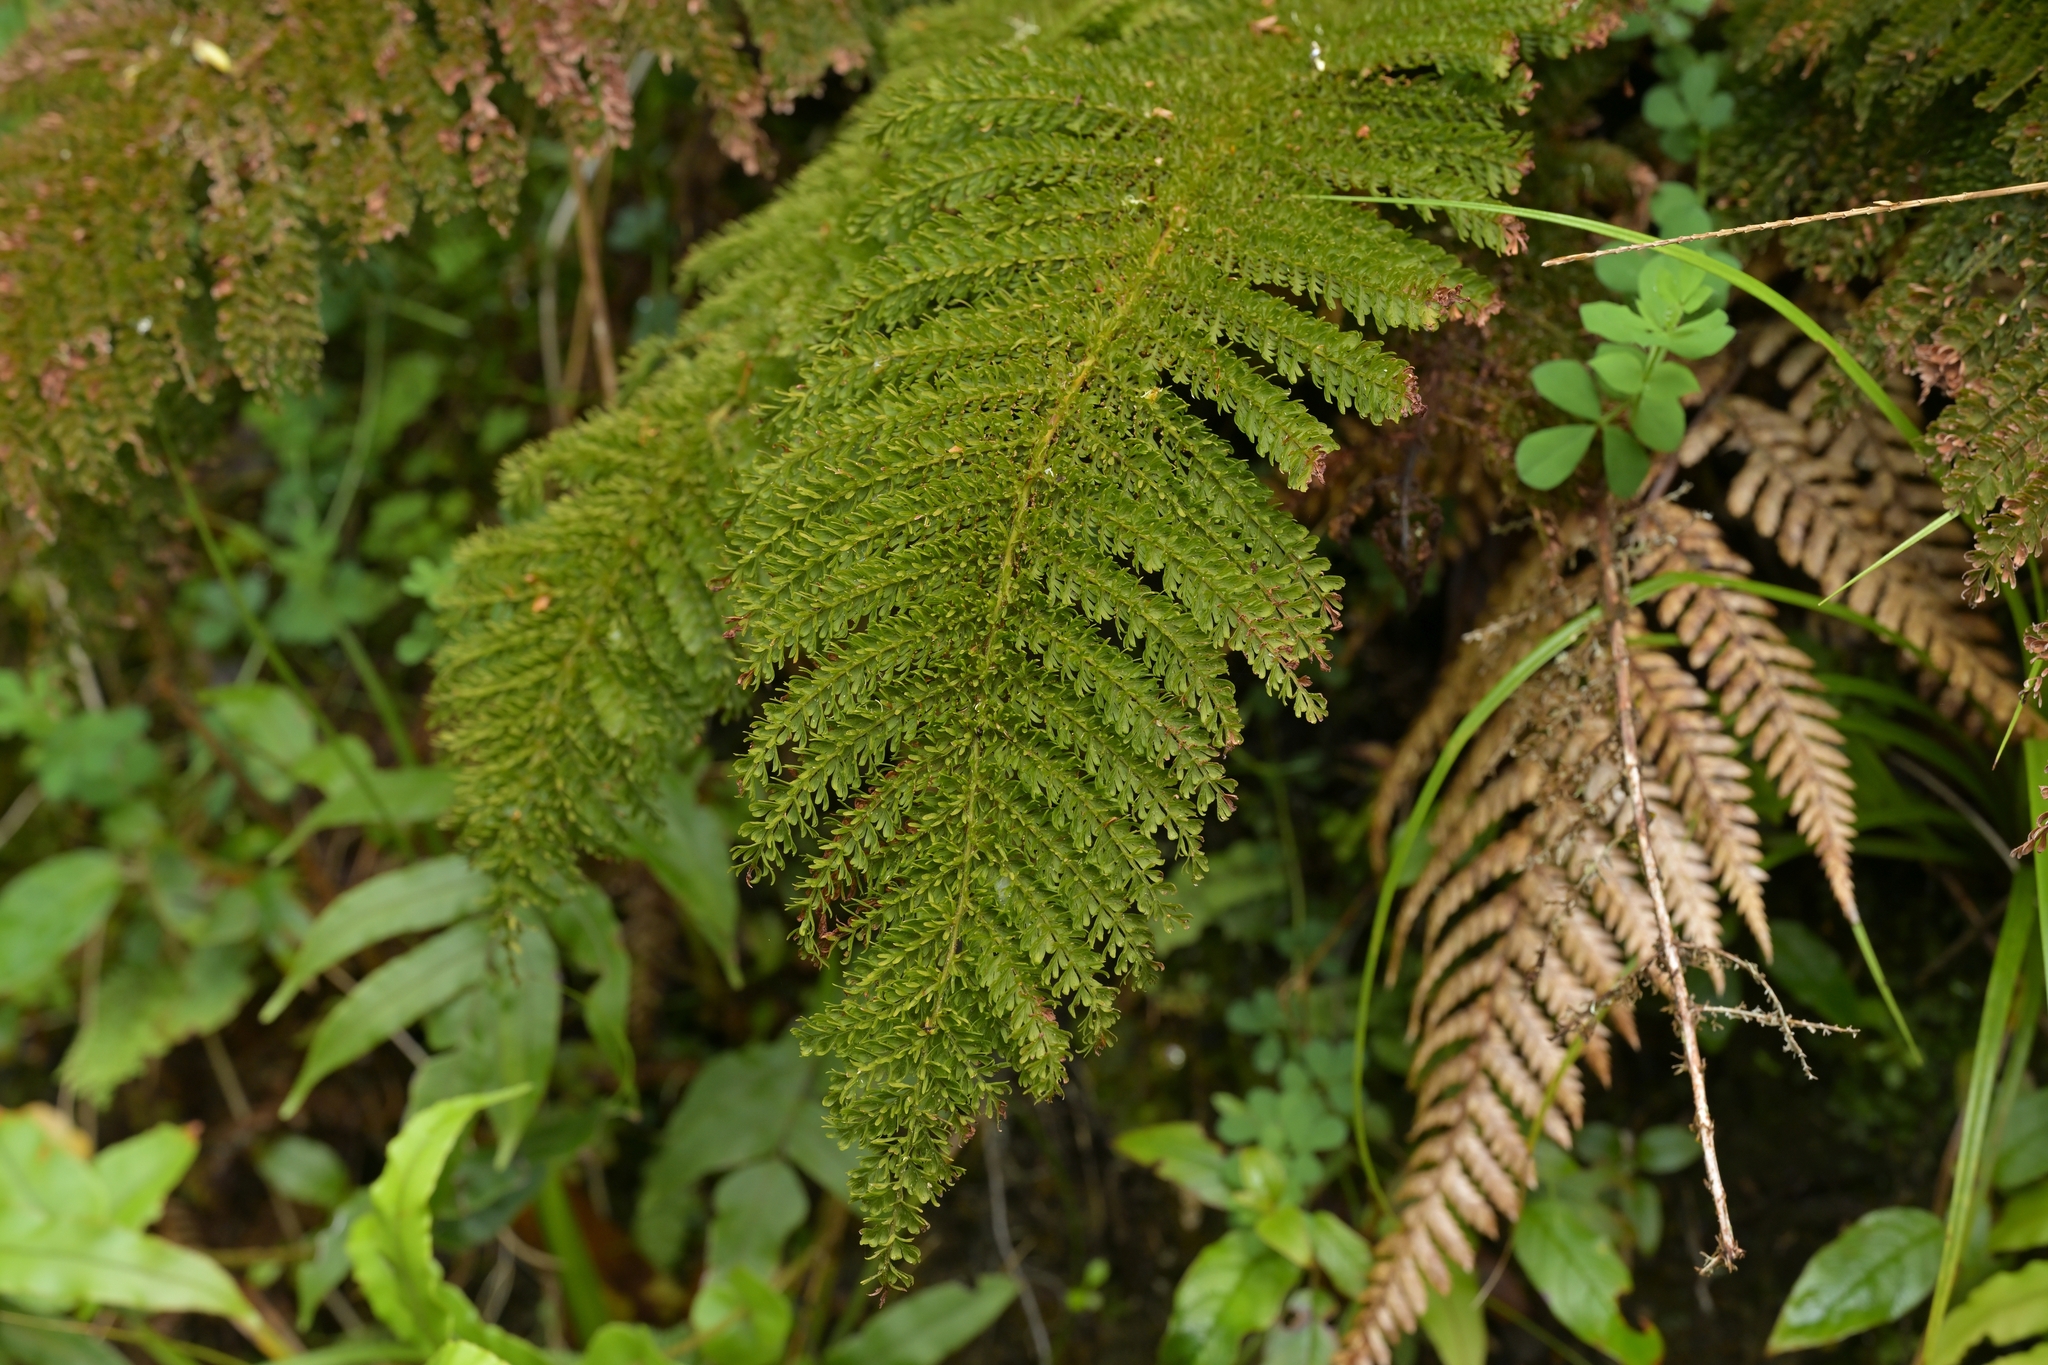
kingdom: Plantae
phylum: Tracheophyta
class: Polypodiopsida
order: Osmundales
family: Osmundaceae
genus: Leptopteris
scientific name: Leptopteris superba
